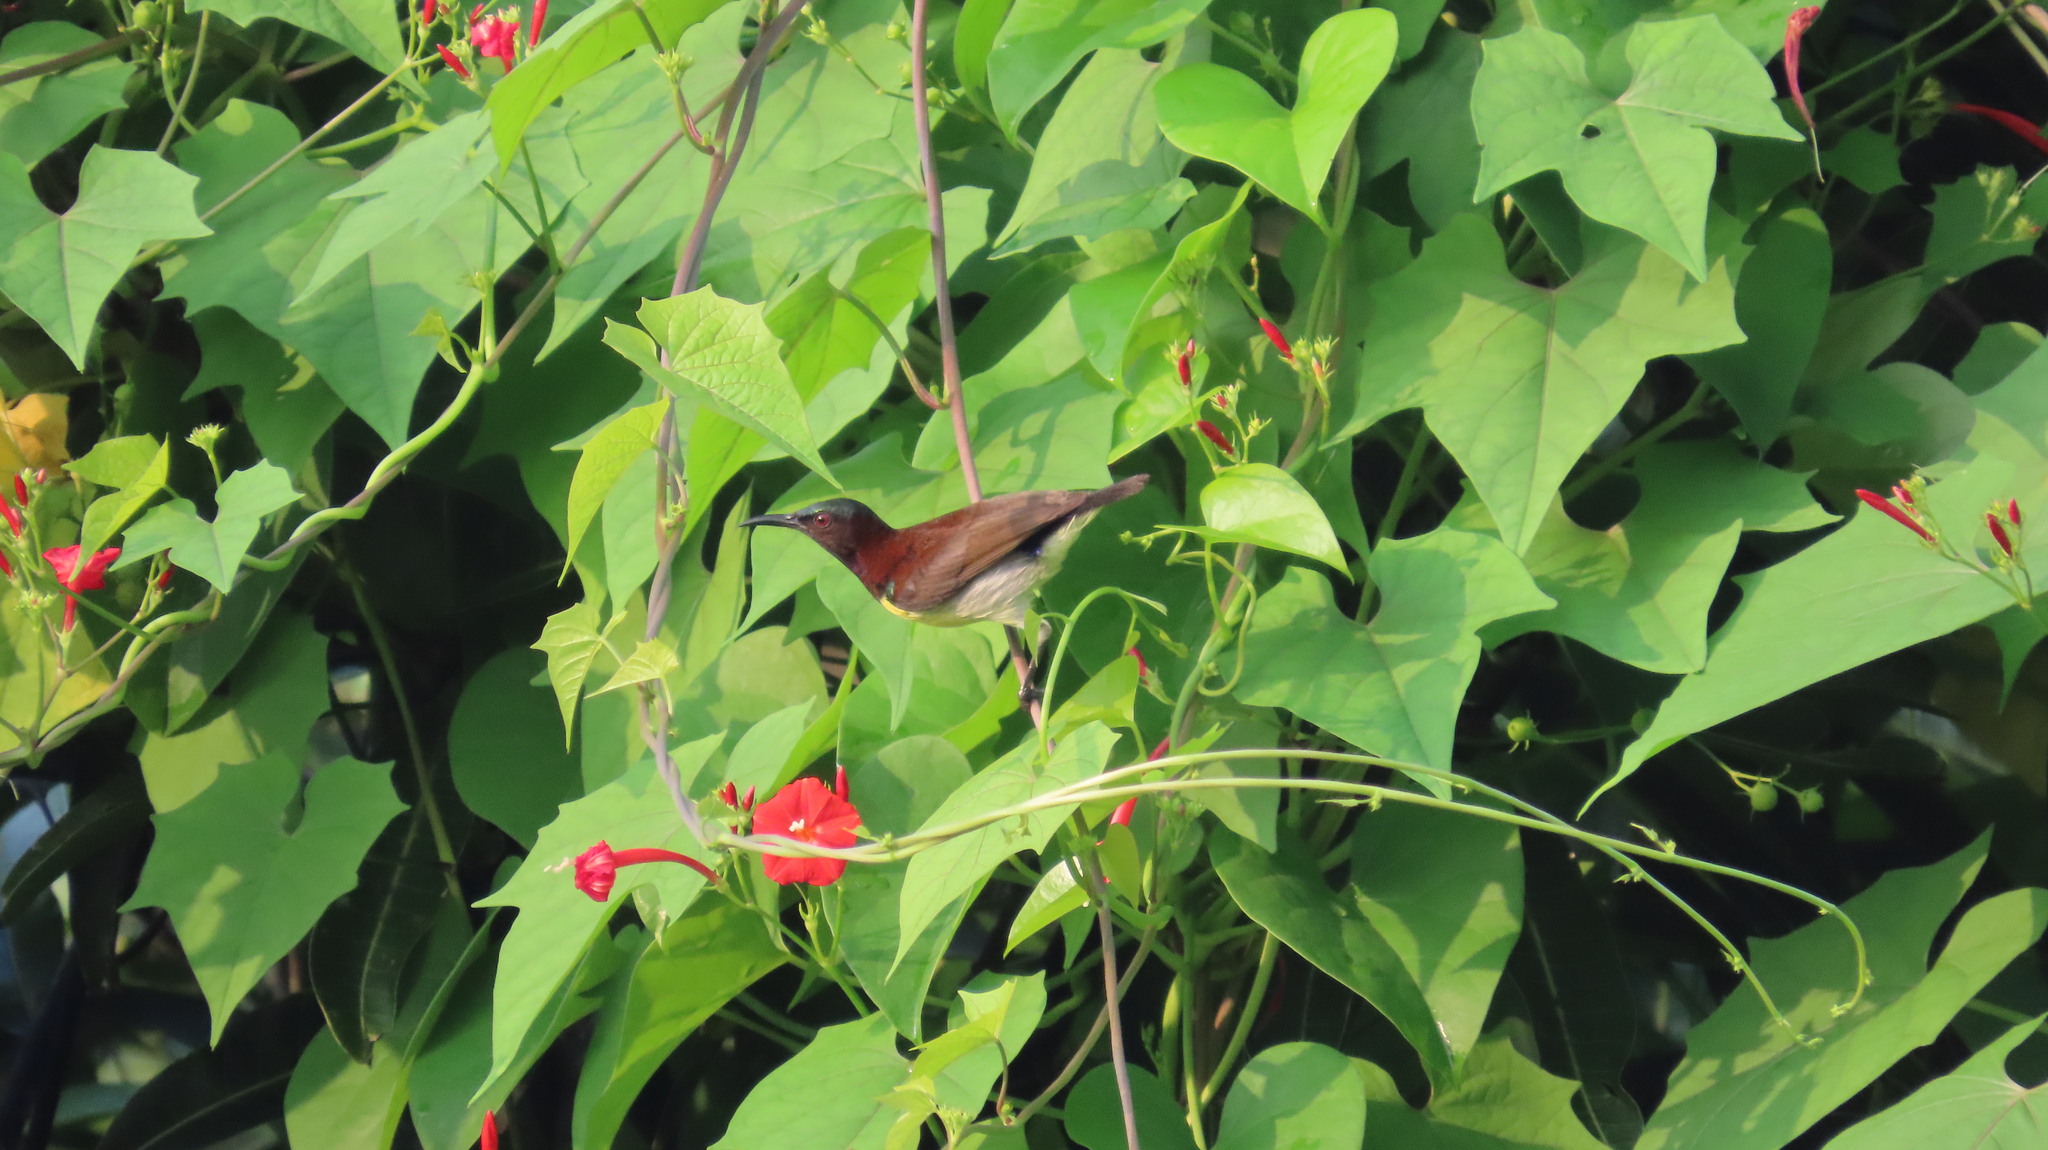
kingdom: Animalia
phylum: Chordata
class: Aves
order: Passeriformes
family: Nectariniidae
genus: Leptocoma
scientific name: Leptocoma zeylonica
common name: Purple-rumped sunbird
